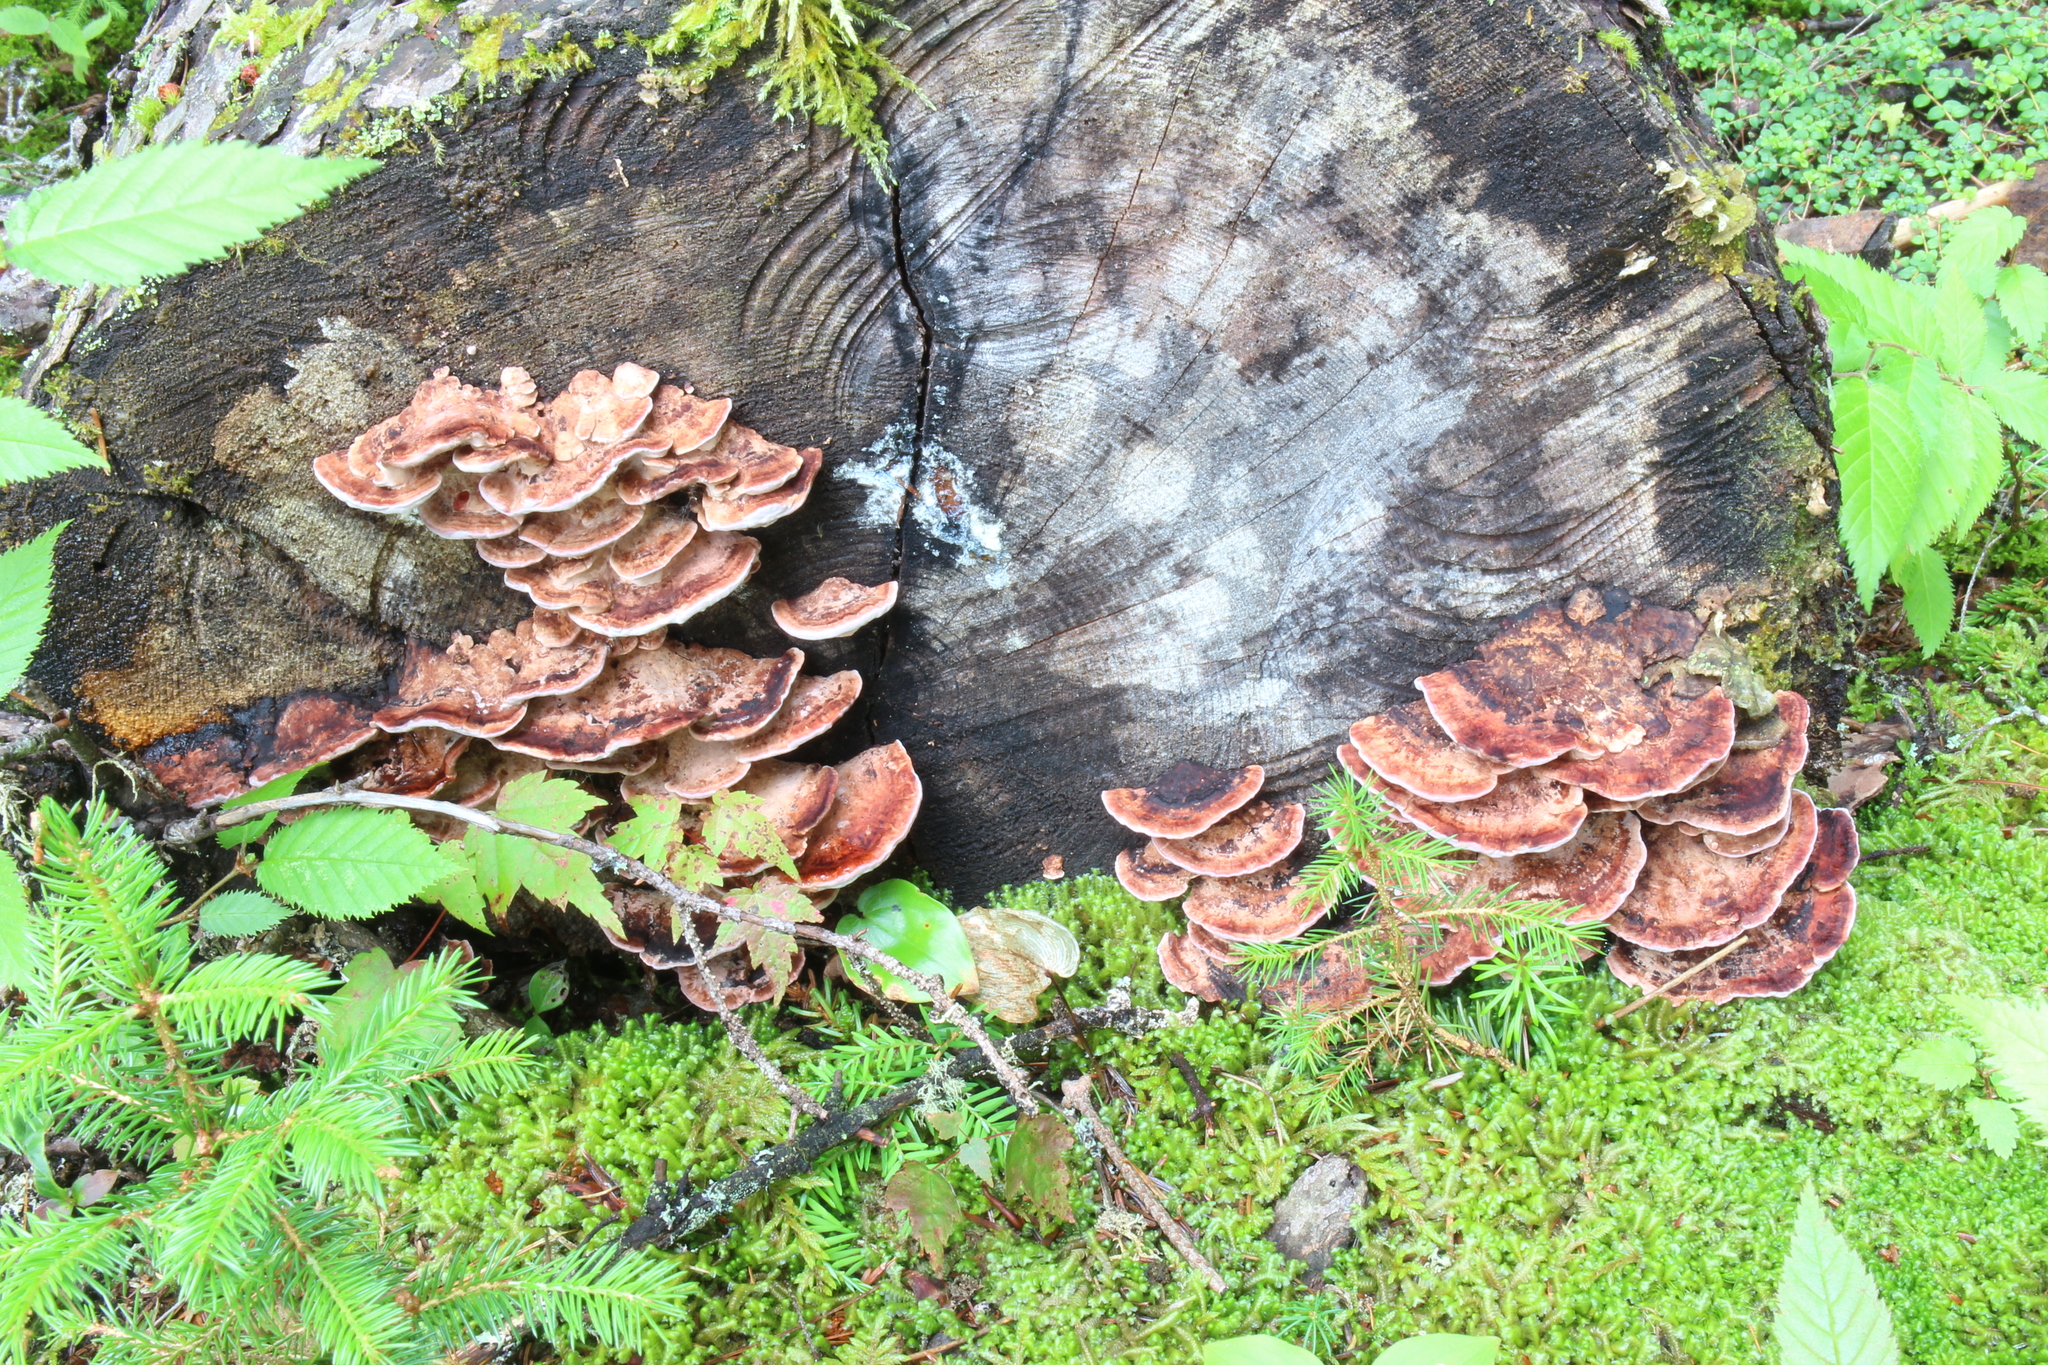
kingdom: Fungi
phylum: Basidiomycota
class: Agaricomycetes
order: Polyporales
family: Fomitopsidaceae
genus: Rhodofomes
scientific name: Rhodofomes cajanderi
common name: Rosy conk
